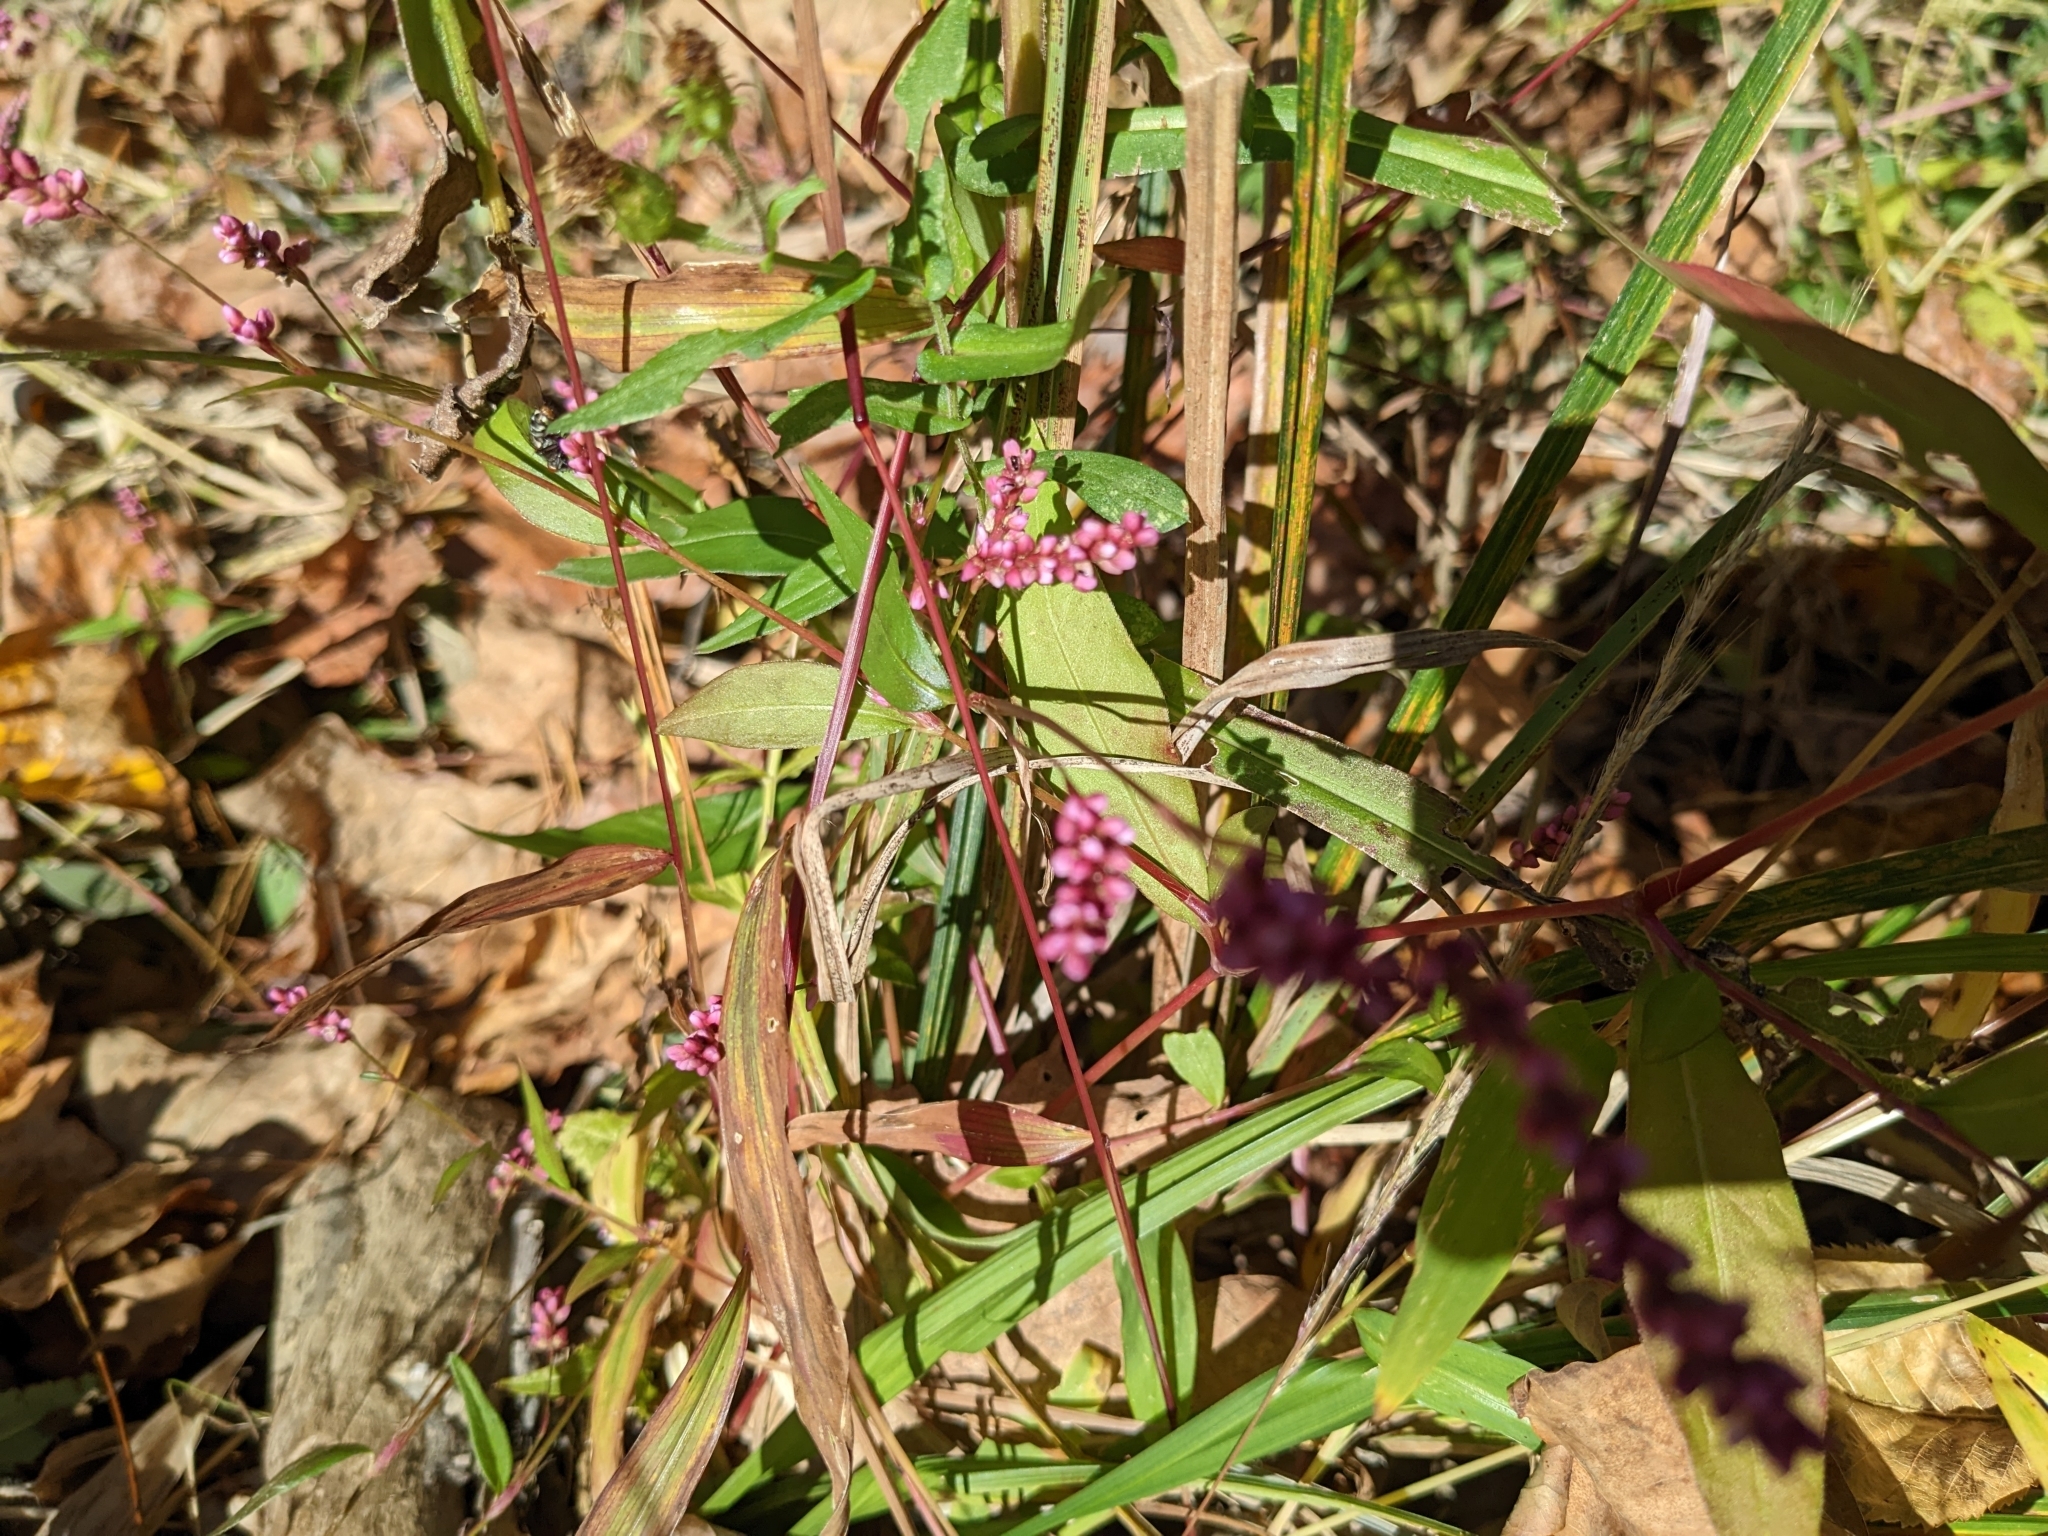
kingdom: Plantae
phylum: Tracheophyta
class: Magnoliopsida
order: Caryophyllales
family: Polygonaceae
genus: Persicaria
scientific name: Persicaria longiseta
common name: Bristly lady's-thumb
